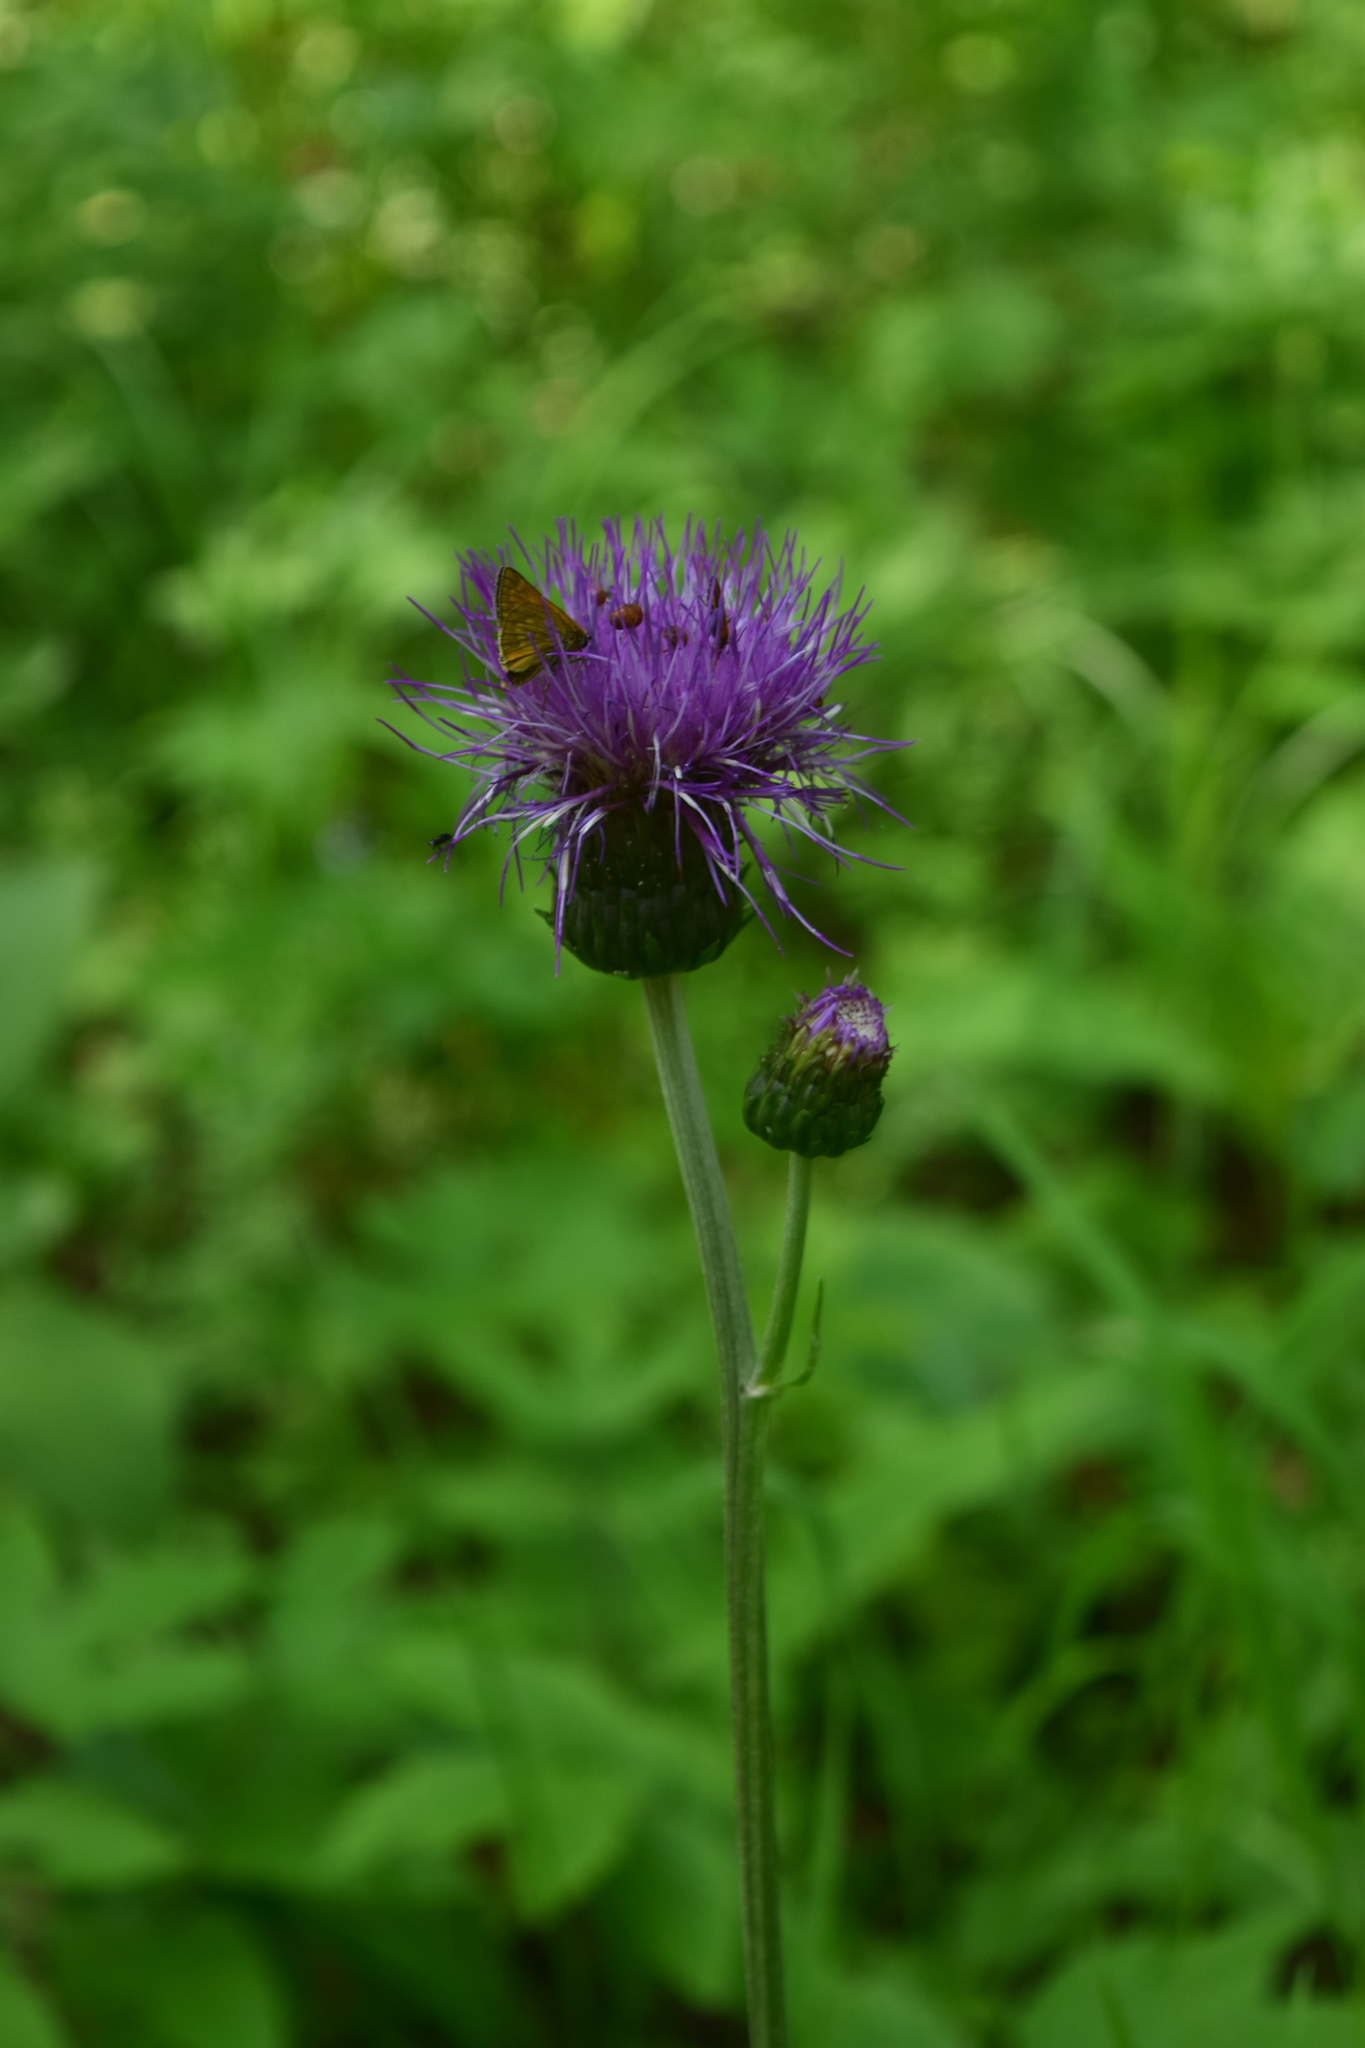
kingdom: Plantae
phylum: Tracheophyta
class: Magnoliopsida
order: Asterales
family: Asteraceae
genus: Cirsium
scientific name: Cirsium heterophyllum
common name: Melancholy thistle
